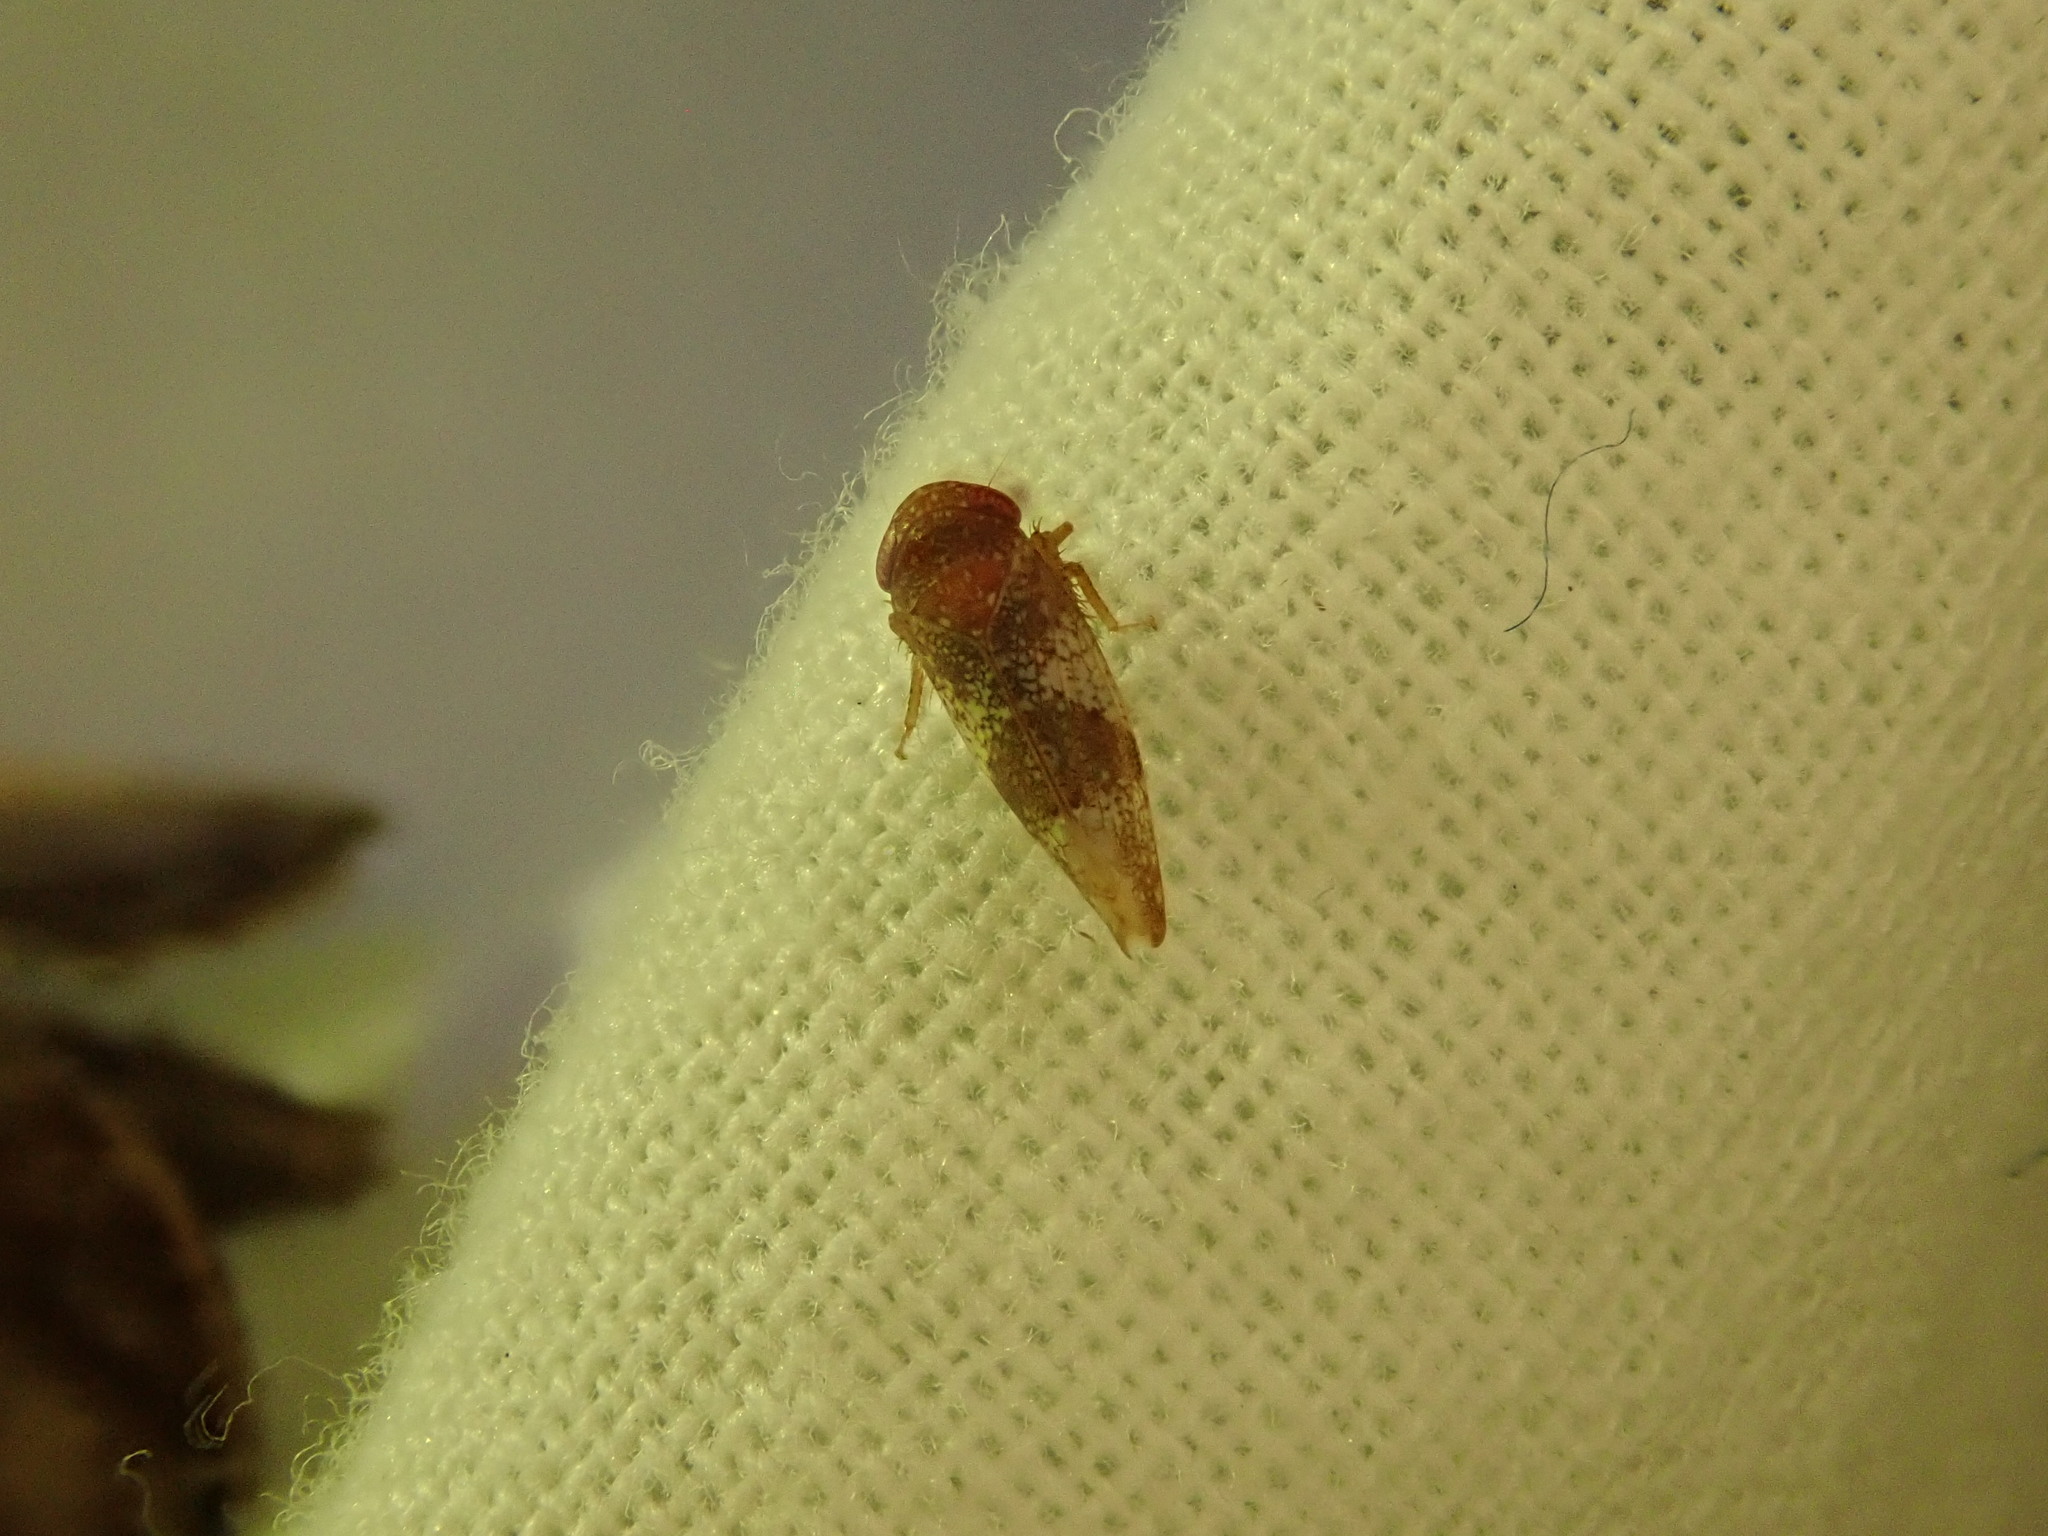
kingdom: Animalia
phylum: Arthropoda
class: Insecta
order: Hemiptera
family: Cicadellidae
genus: Norvellina
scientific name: Norvellina chenopodii
